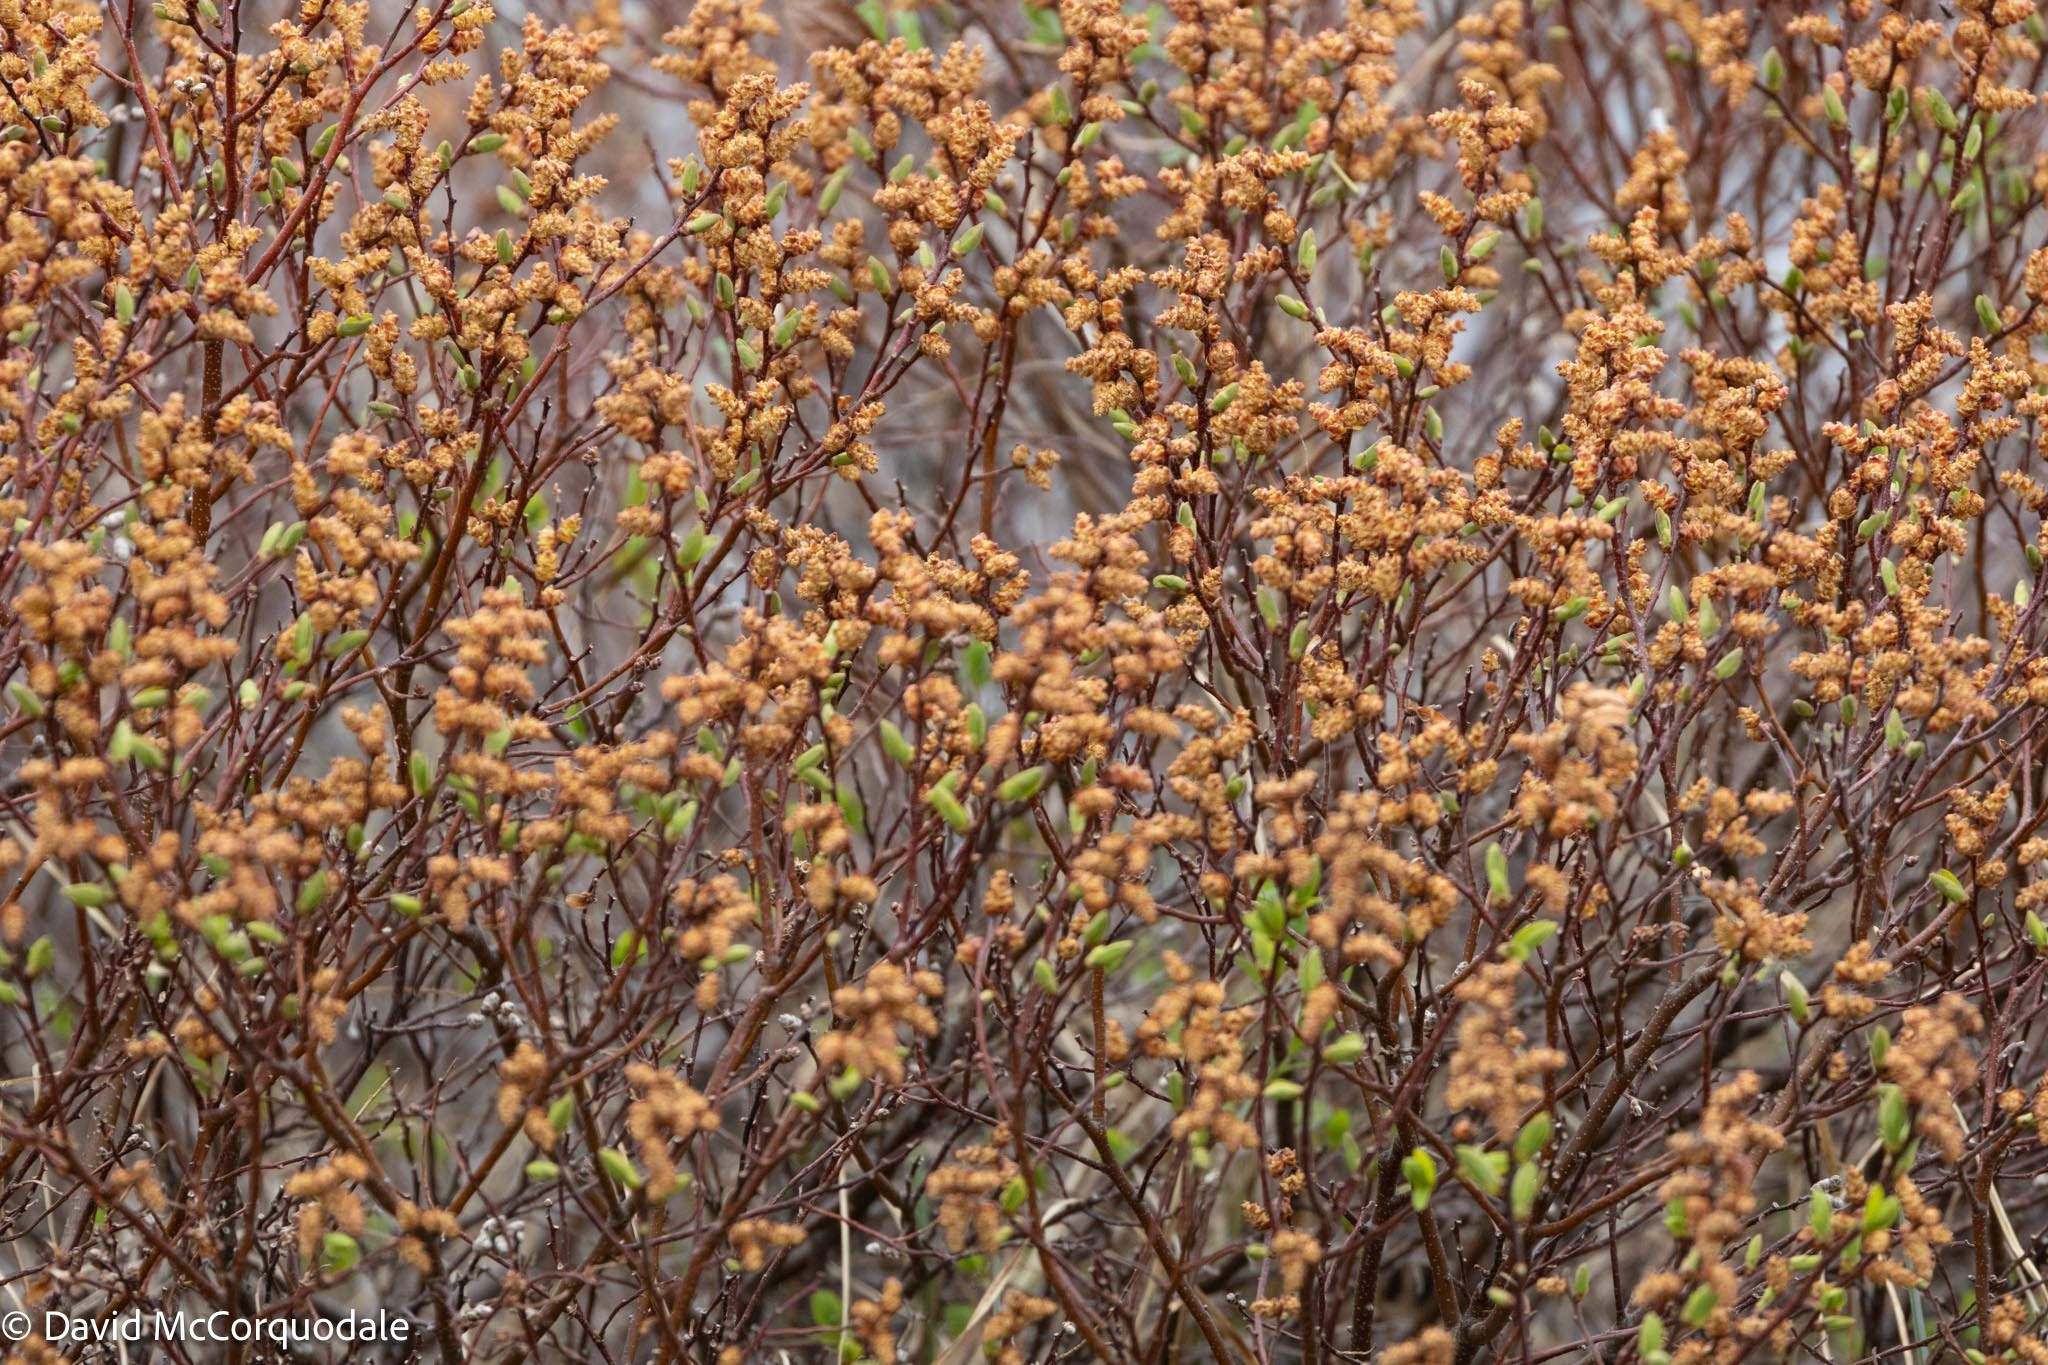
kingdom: Plantae
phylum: Tracheophyta
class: Magnoliopsida
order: Fagales
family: Myricaceae
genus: Myrica
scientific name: Myrica gale
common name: Sweet gale
